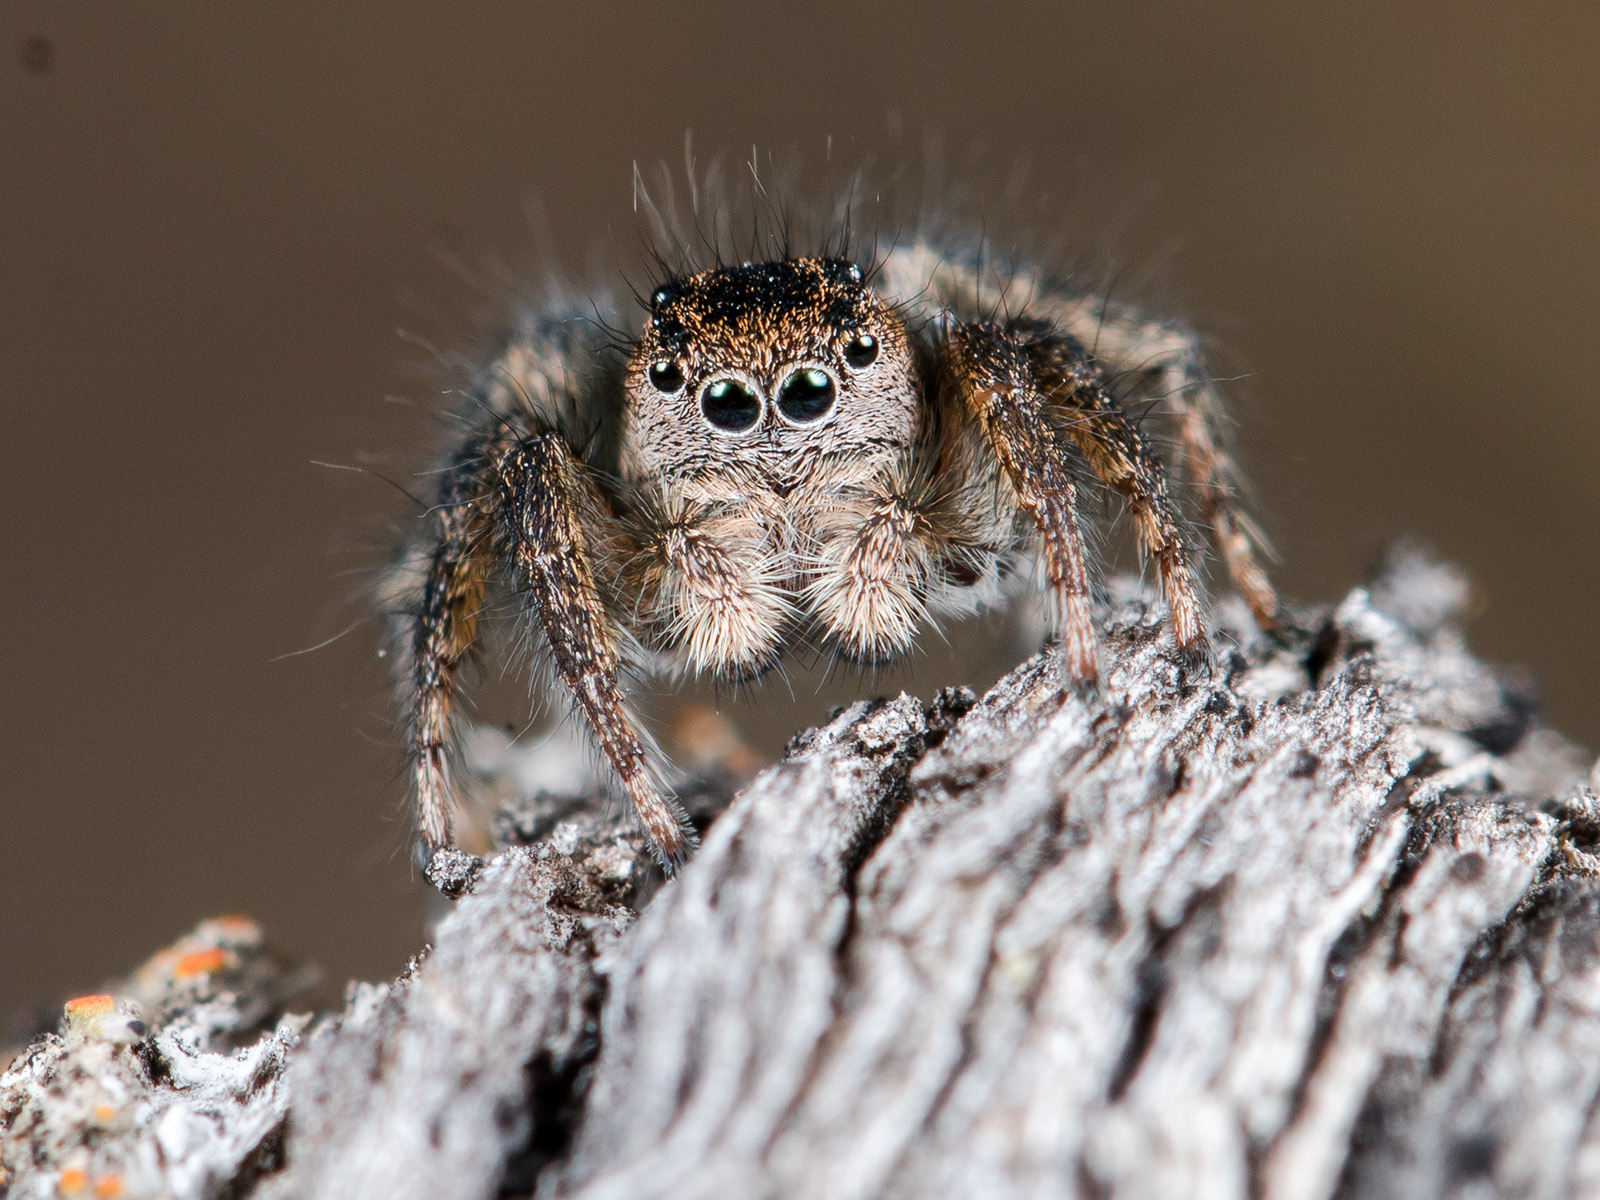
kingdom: Animalia
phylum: Arthropoda
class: Arachnida
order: Araneae
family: Salticidae
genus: Aelurillus
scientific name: Aelurillus dubatolovi
